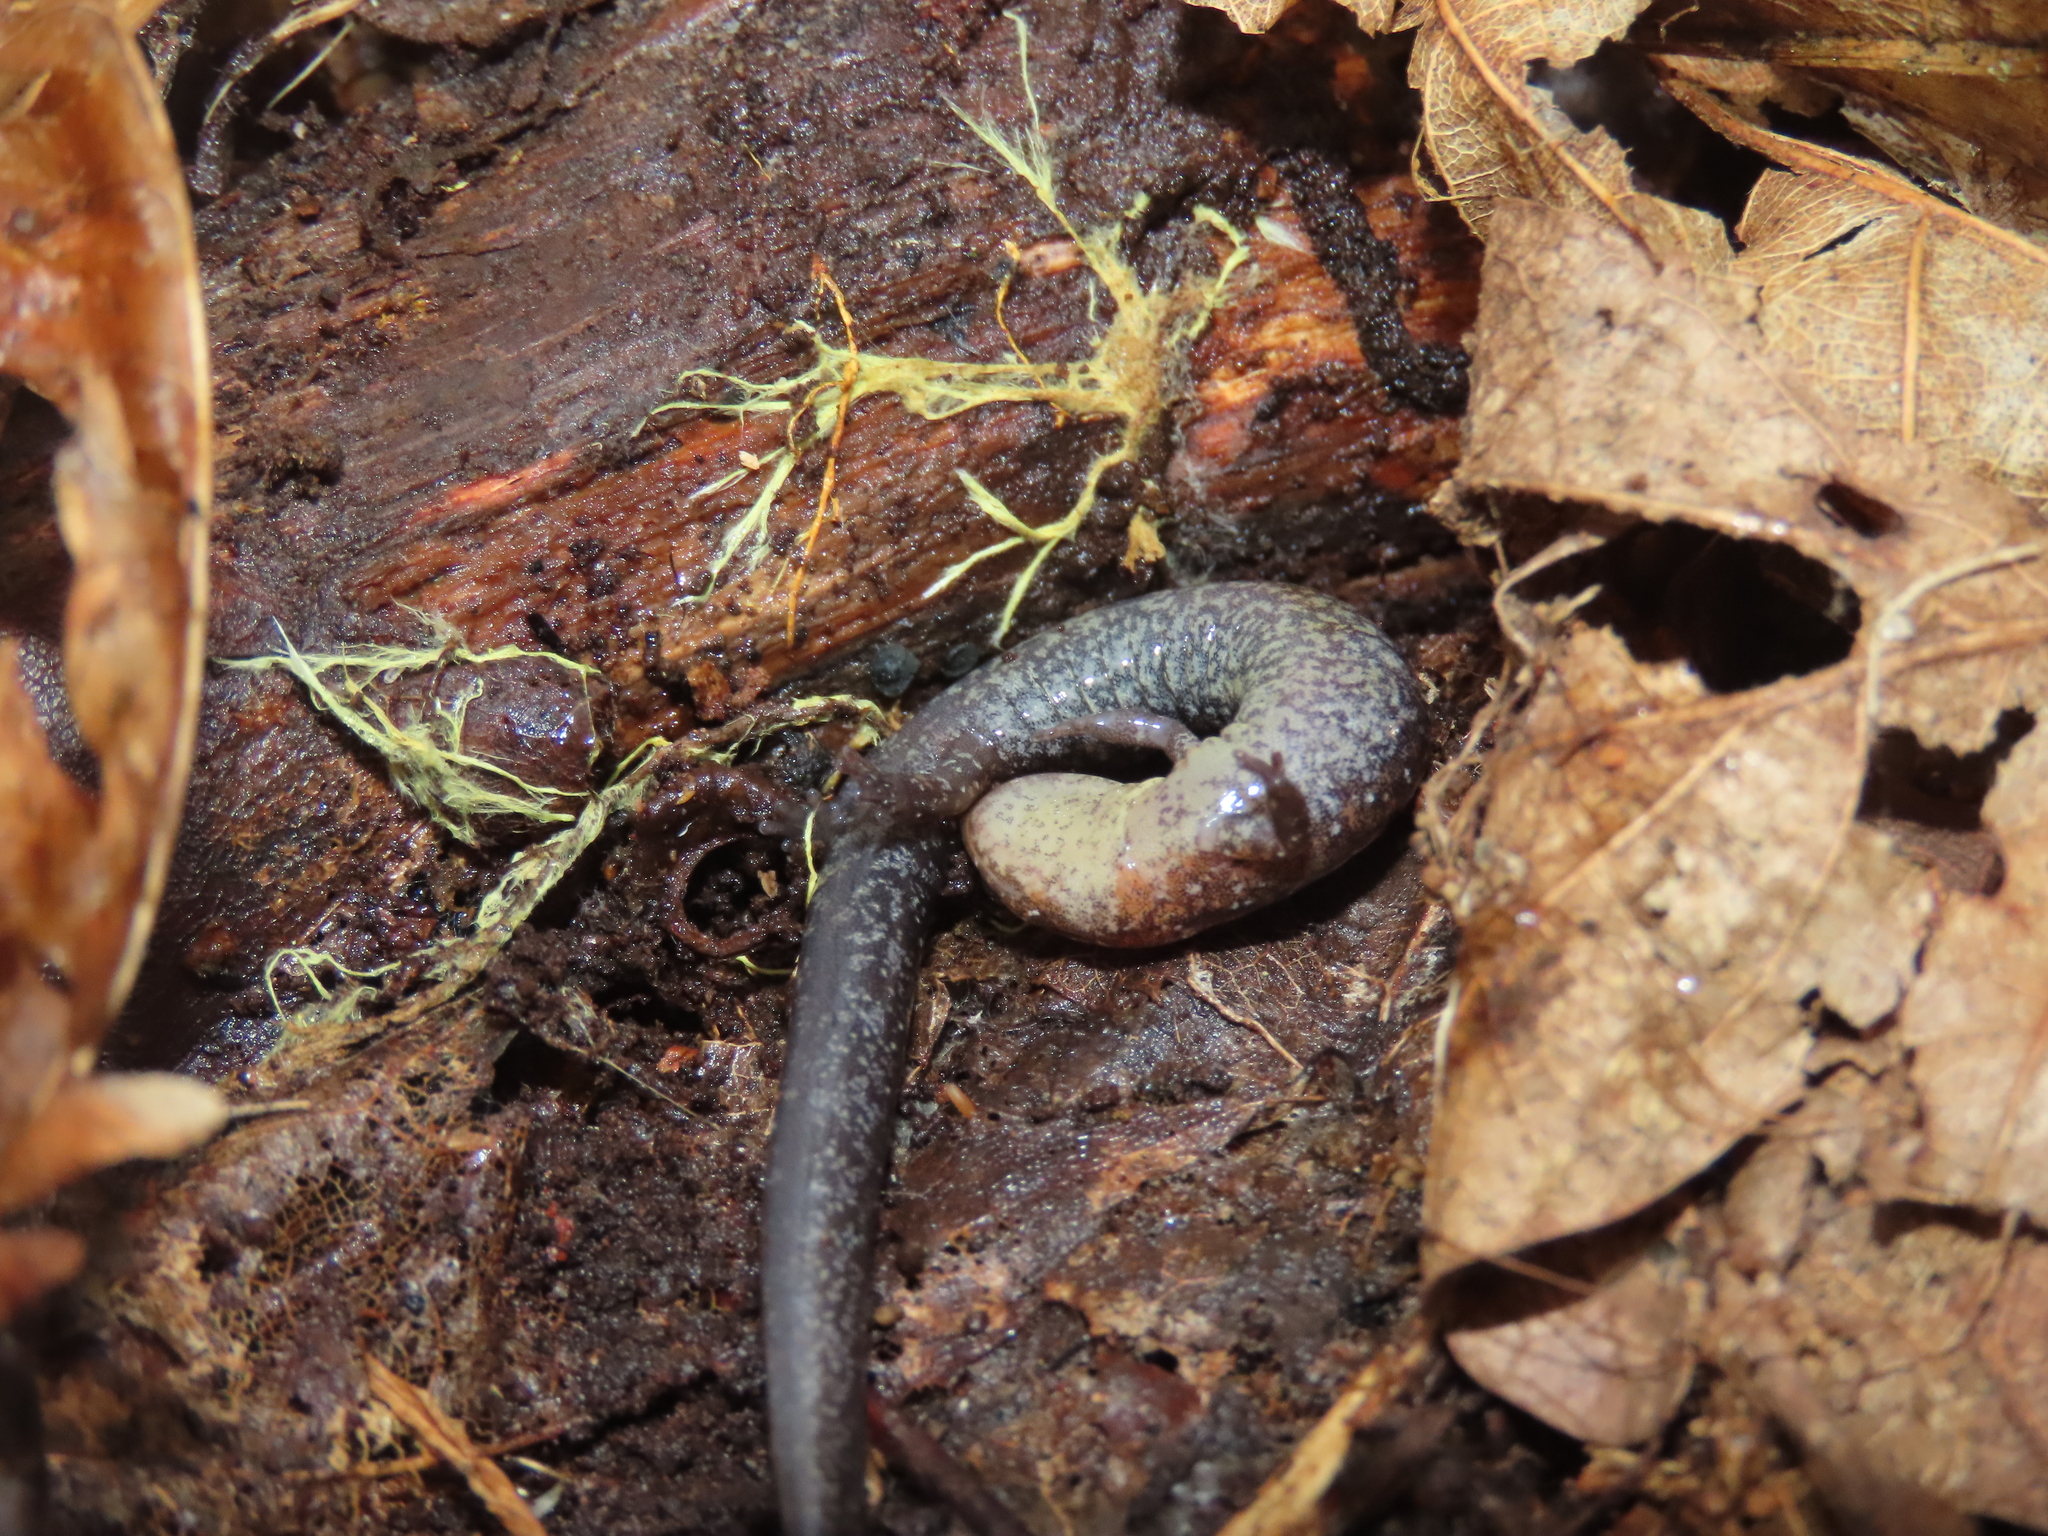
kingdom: Animalia
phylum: Chordata
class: Amphibia
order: Caudata
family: Plethodontidae
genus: Plethodon
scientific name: Plethodon cinereus
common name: Redback salamander
